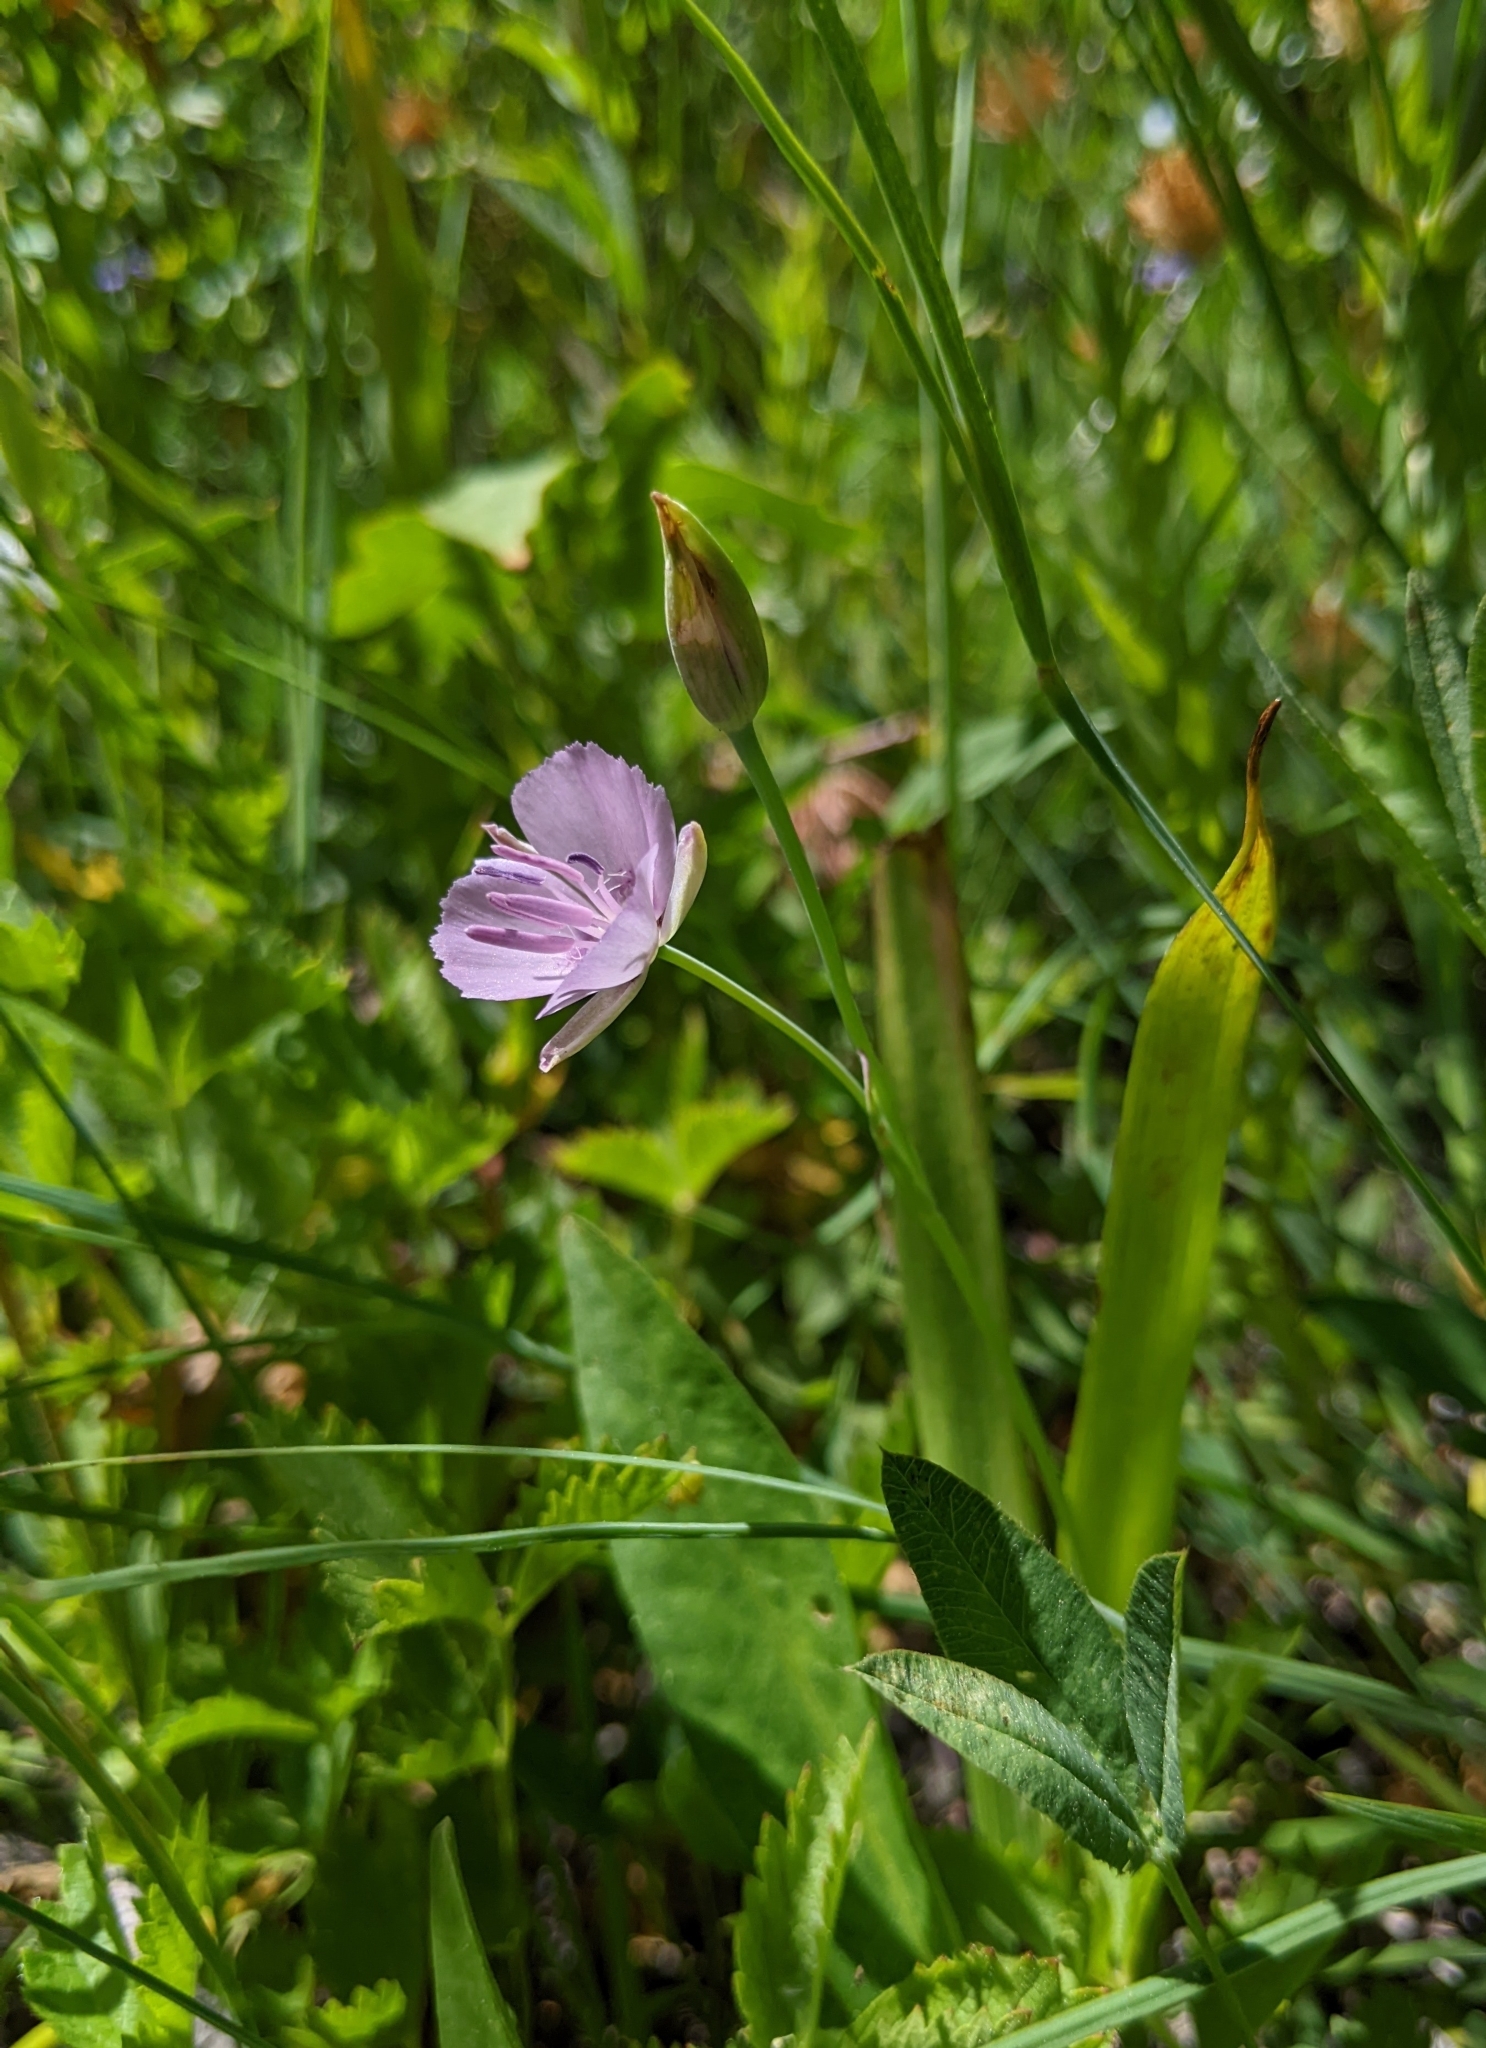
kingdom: Plantae
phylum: Tracheophyta
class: Liliopsida
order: Liliales
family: Liliaceae
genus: Calochortus
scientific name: Calochortus nudus
